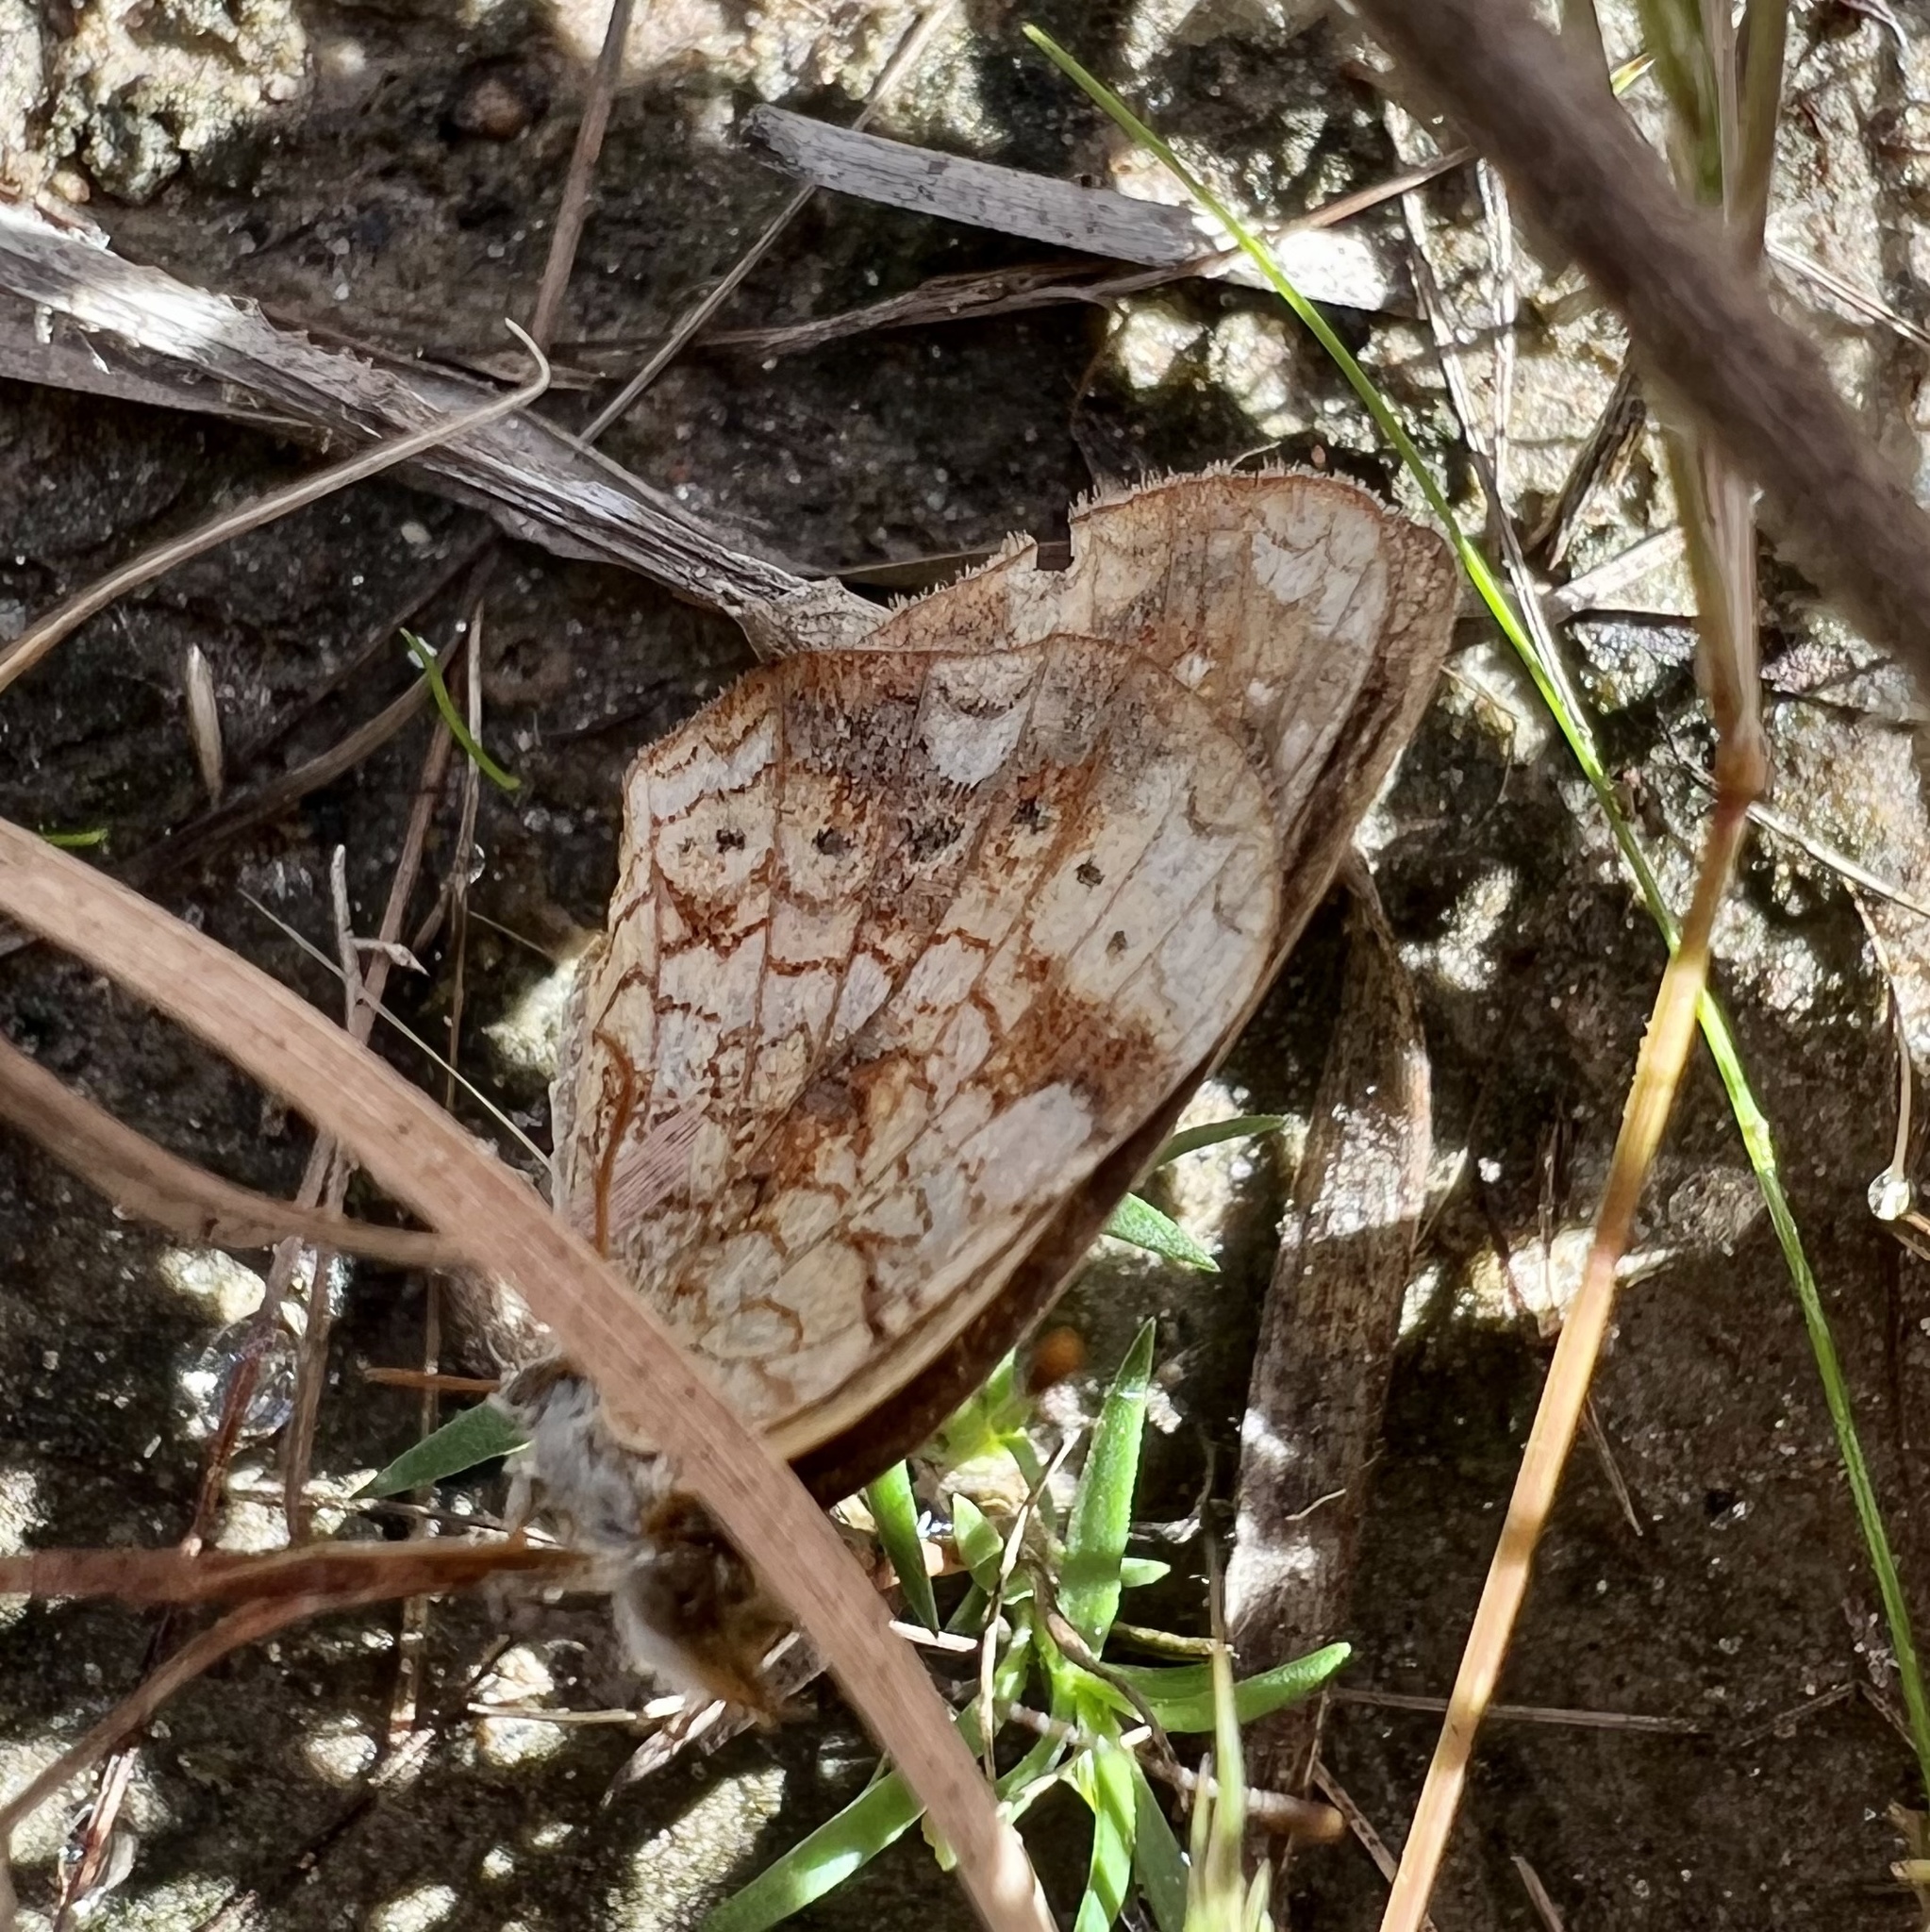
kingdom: Animalia
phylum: Arthropoda
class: Insecta
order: Lepidoptera
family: Nymphalidae
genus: Phyciodes
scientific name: Phyciodes tharos
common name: Pearl crescent
